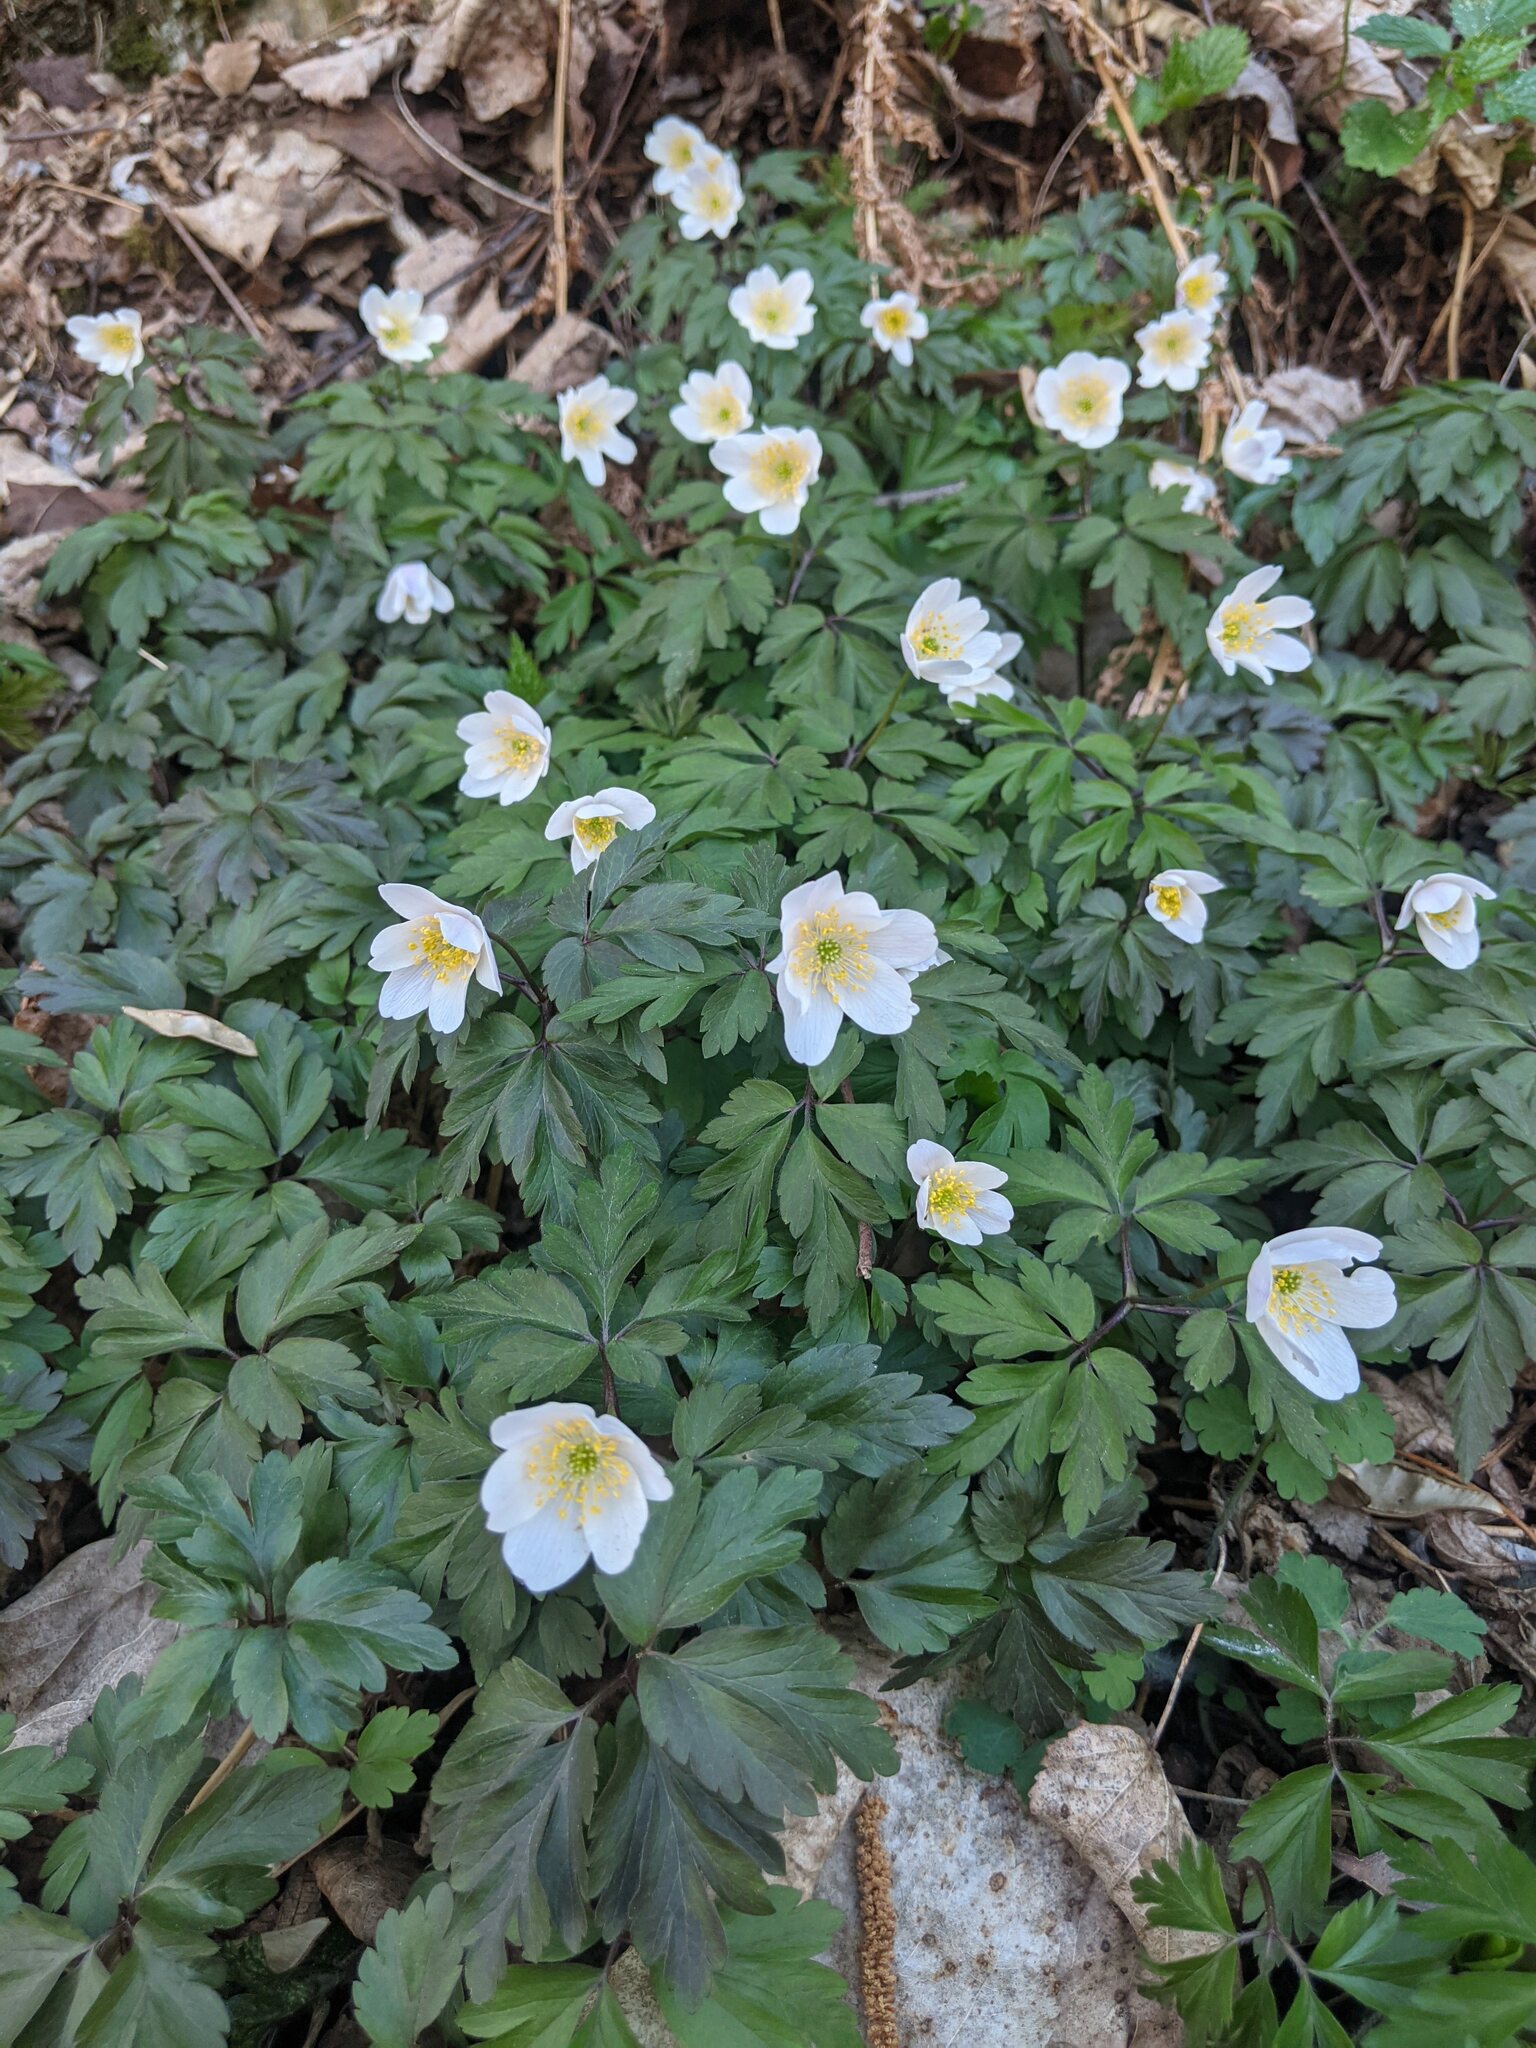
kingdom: Plantae
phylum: Tracheophyta
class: Magnoliopsida
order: Ranunculales
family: Ranunculaceae
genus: Anemone
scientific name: Anemone nemorosa
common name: Wood anemone
